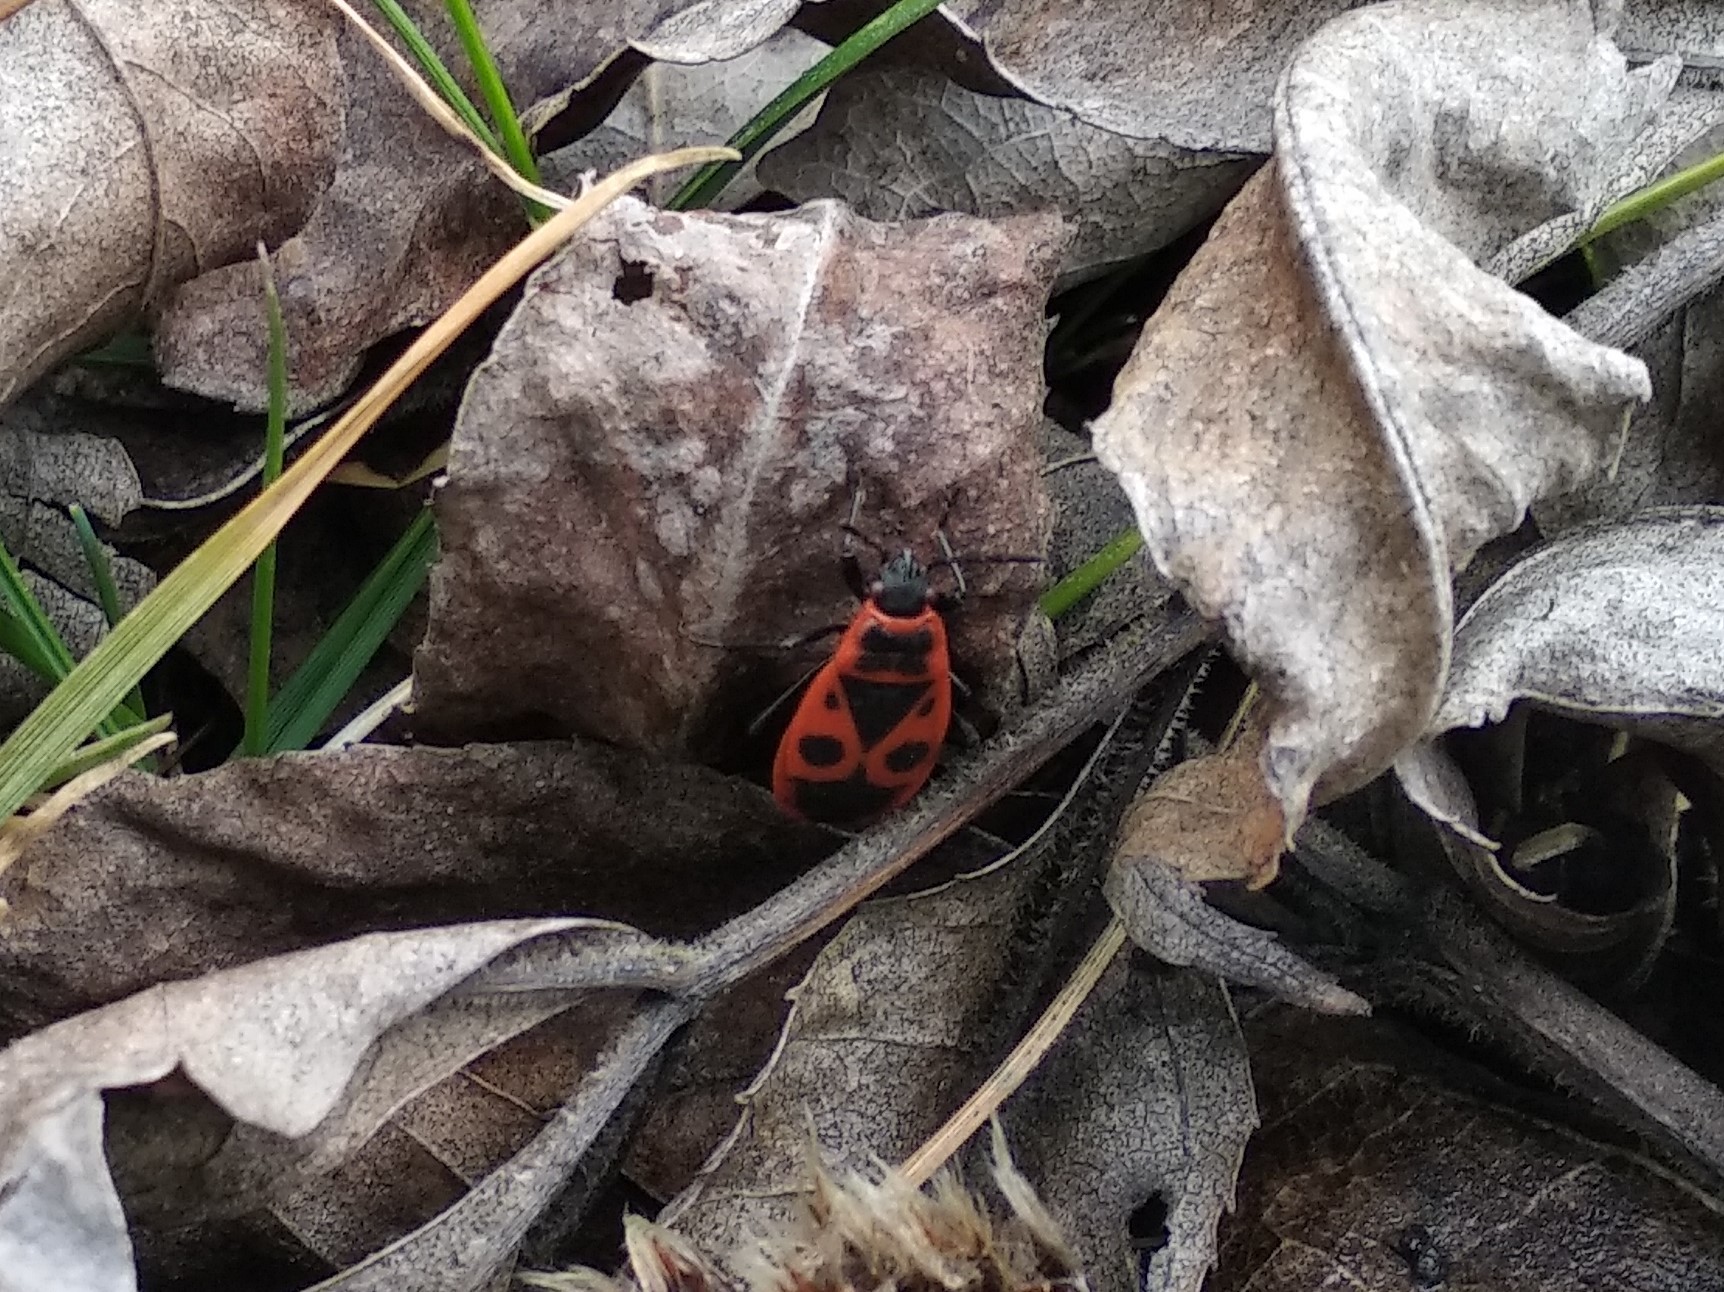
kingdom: Animalia
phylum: Arthropoda
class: Insecta
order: Hemiptera
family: Pyrrhocoridae
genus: Pyrrhocoris
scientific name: Pyrrhocoris apterus
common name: Firebug
